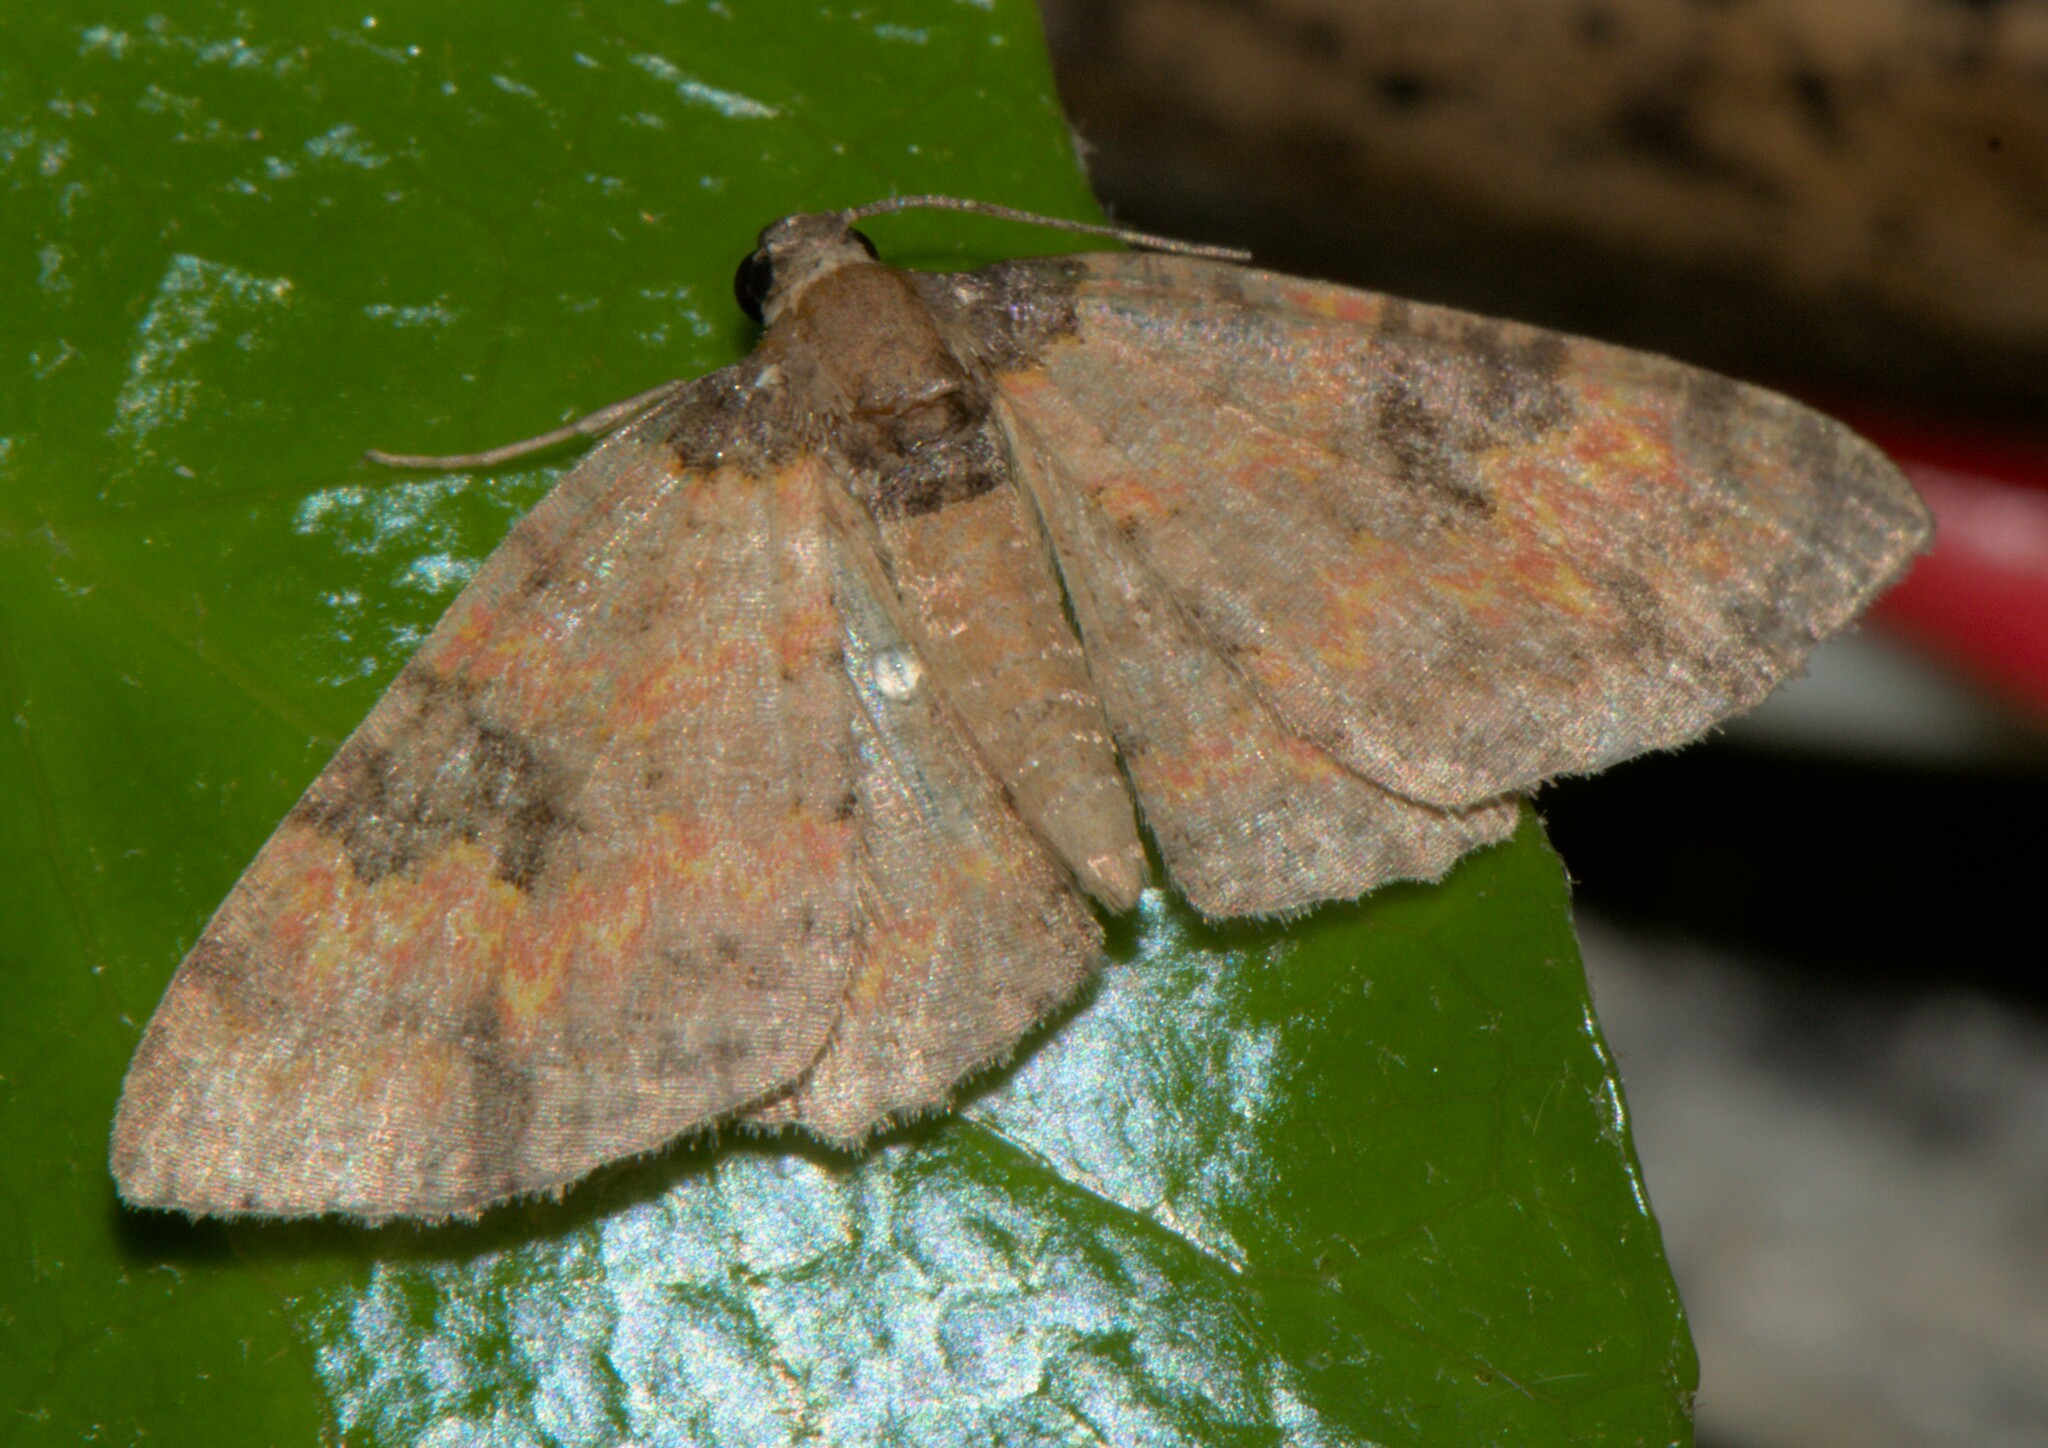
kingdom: Animalia
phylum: Arthropoda
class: Insecta
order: Lepidoptera
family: Geometridae
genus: Hydrelia
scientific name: Hydrelia bicolorata
